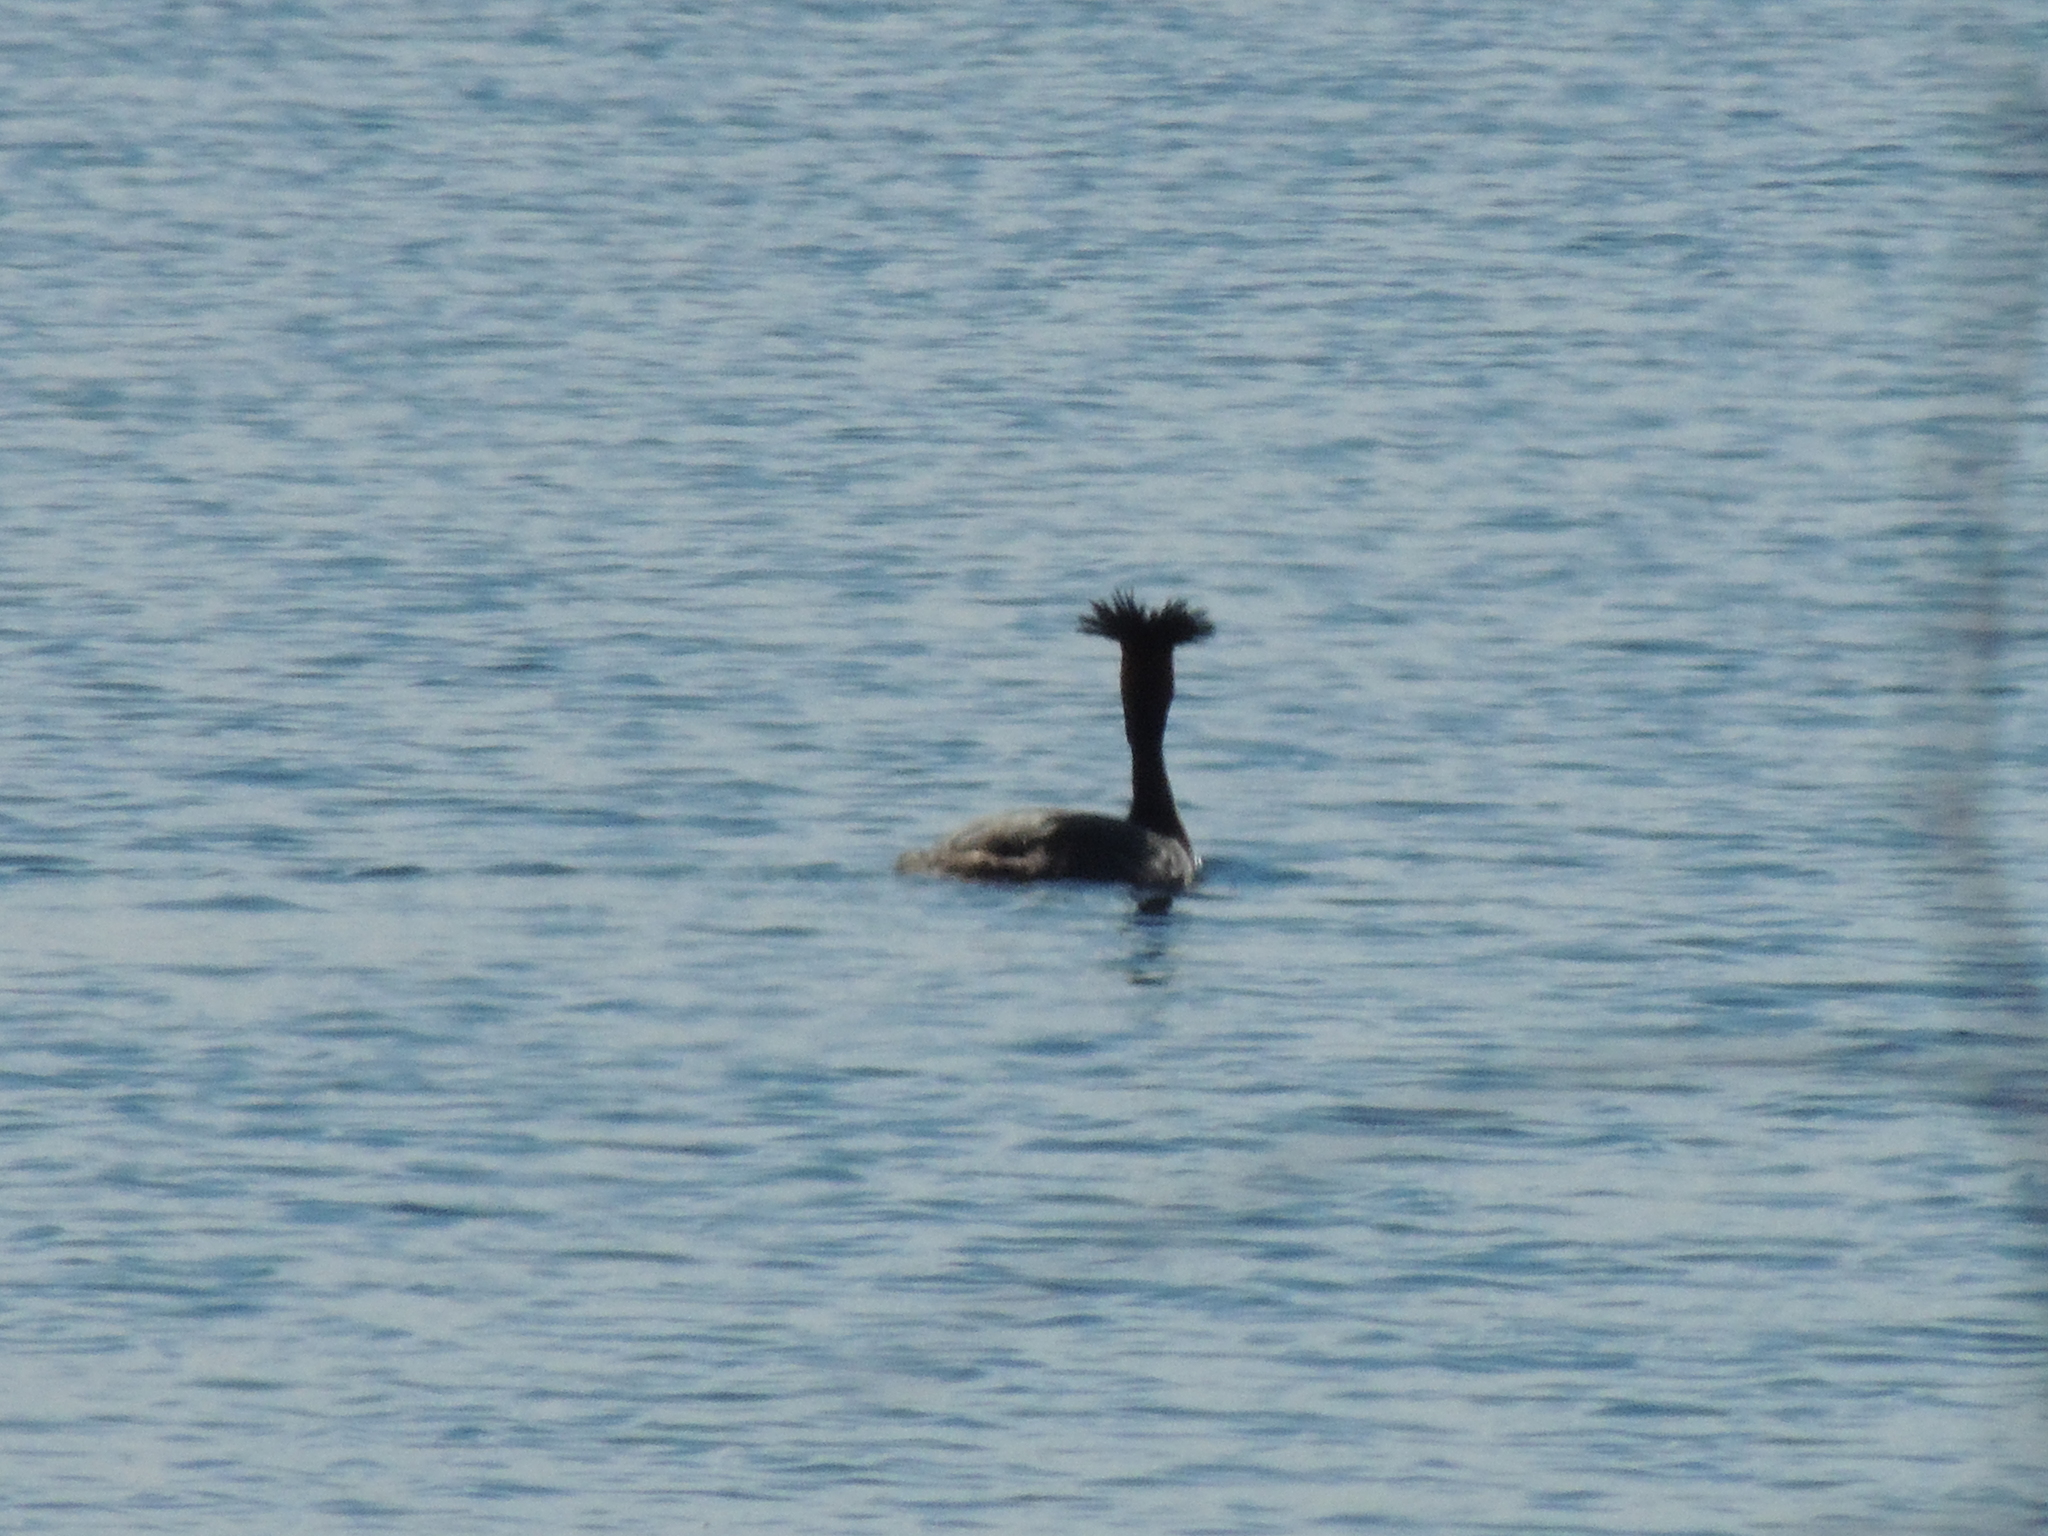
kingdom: Animalia
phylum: Chordata
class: Aves
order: Podicipediformes
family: Podicipedidae
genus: Podiceps
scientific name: Podiceps cristatus
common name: Great crested grebe
